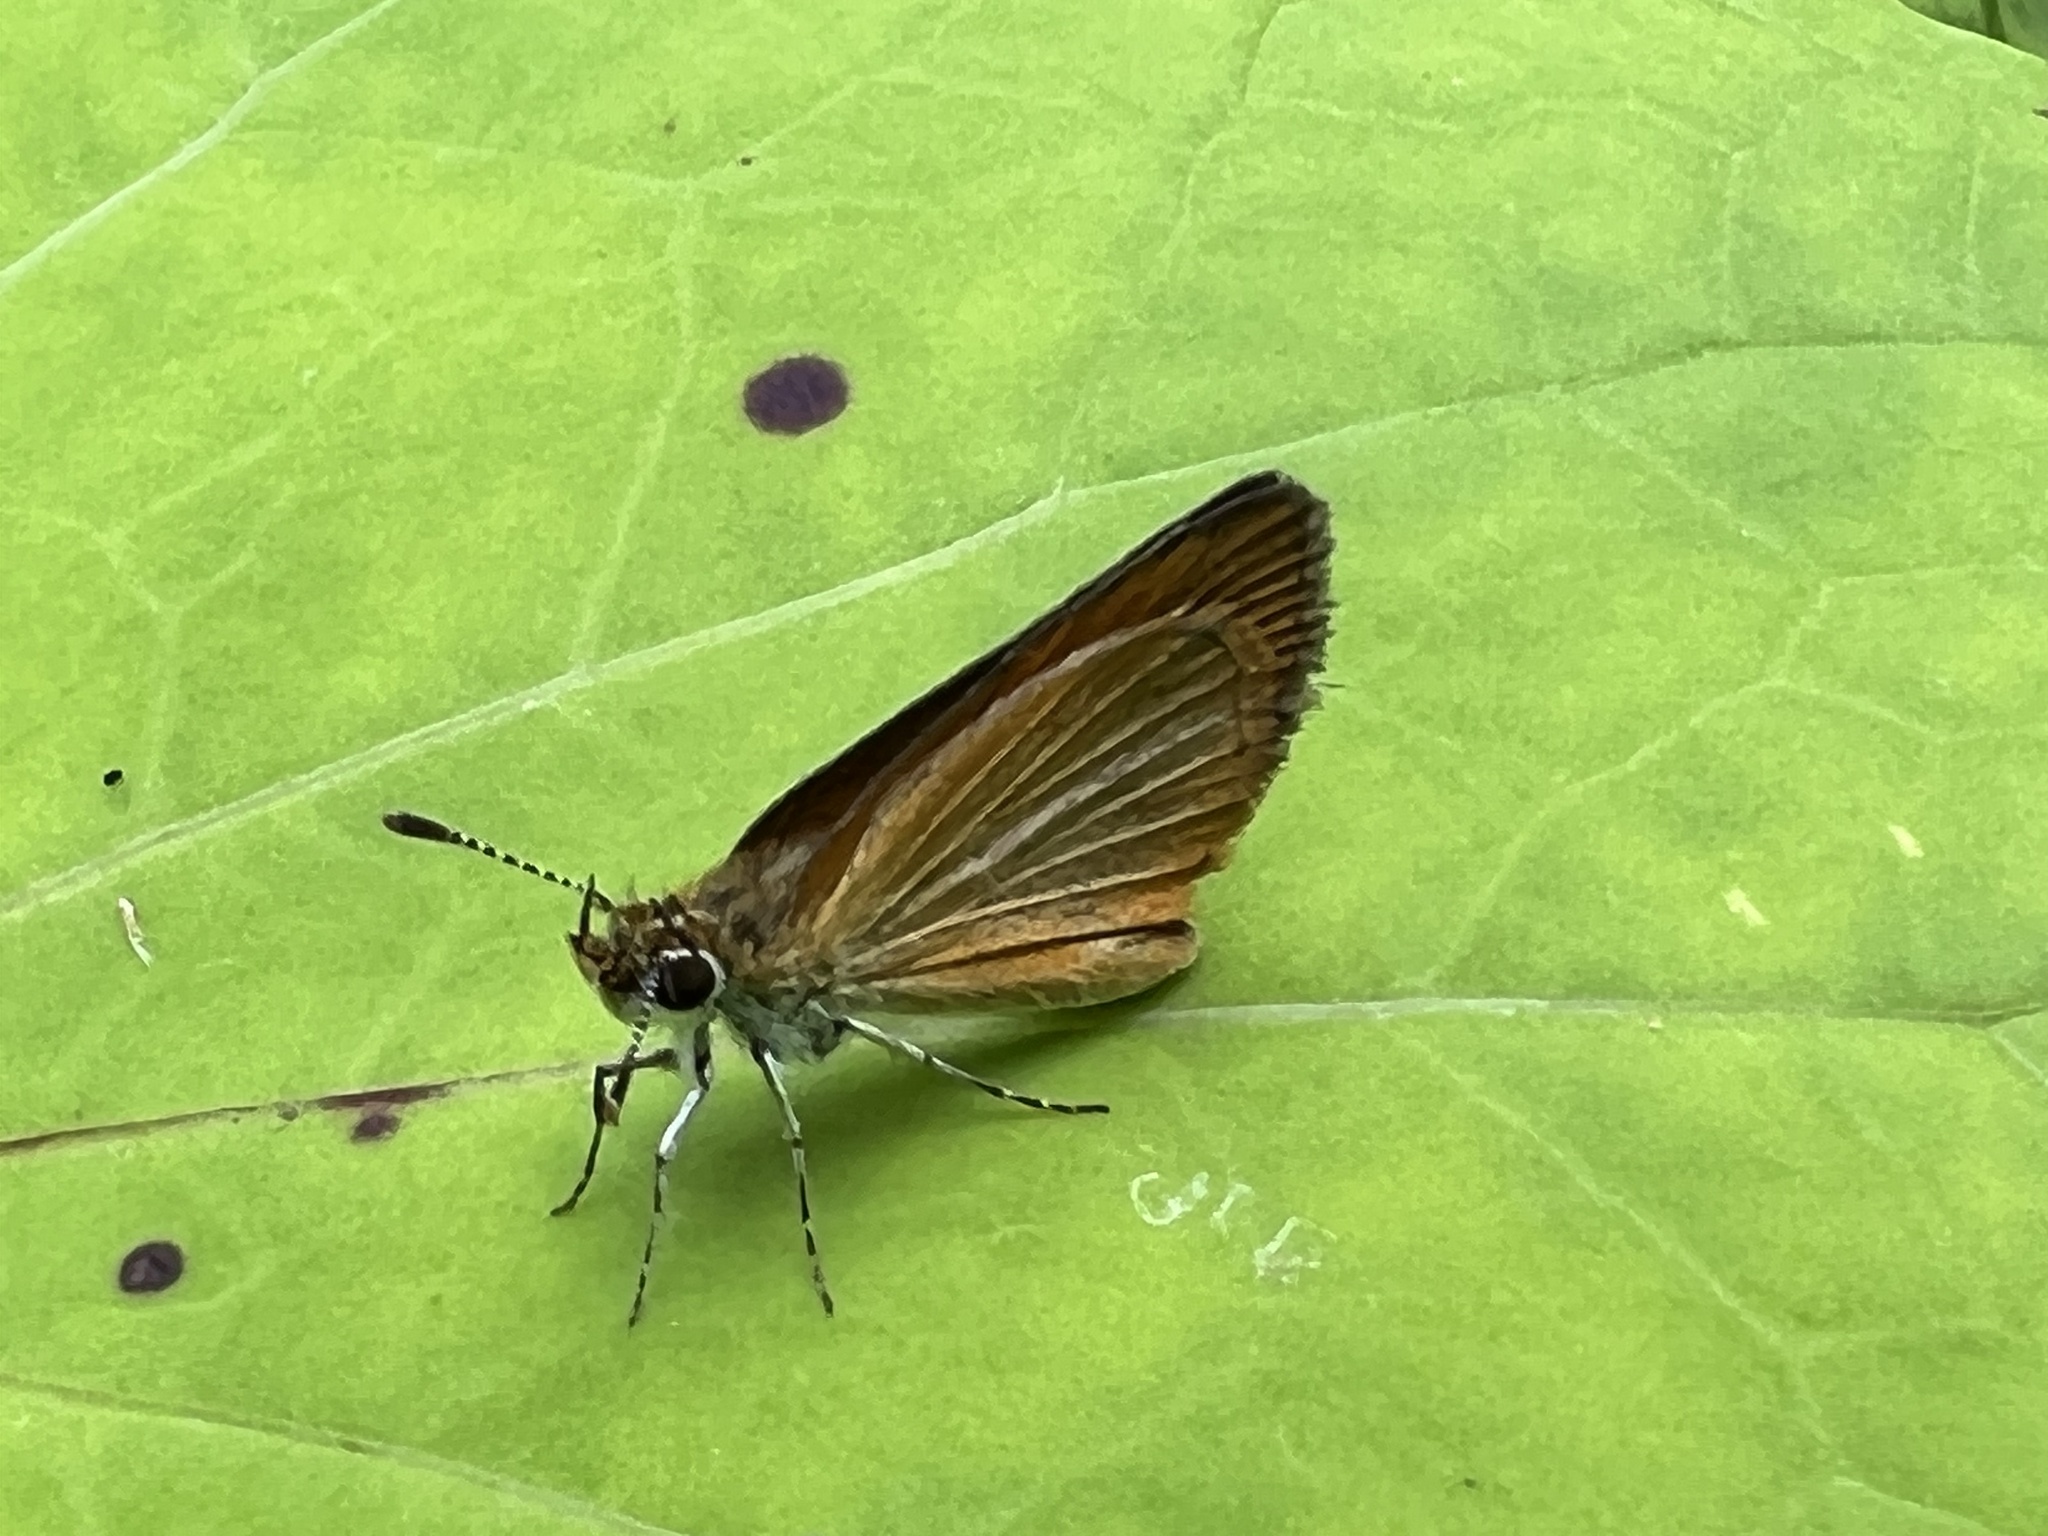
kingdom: Animalia
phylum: Arthropoda
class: Insecta
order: Lepidoptera
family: Hesperiidae
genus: Ancyloxypha
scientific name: Ancyloxypha numitor
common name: Least skipper
